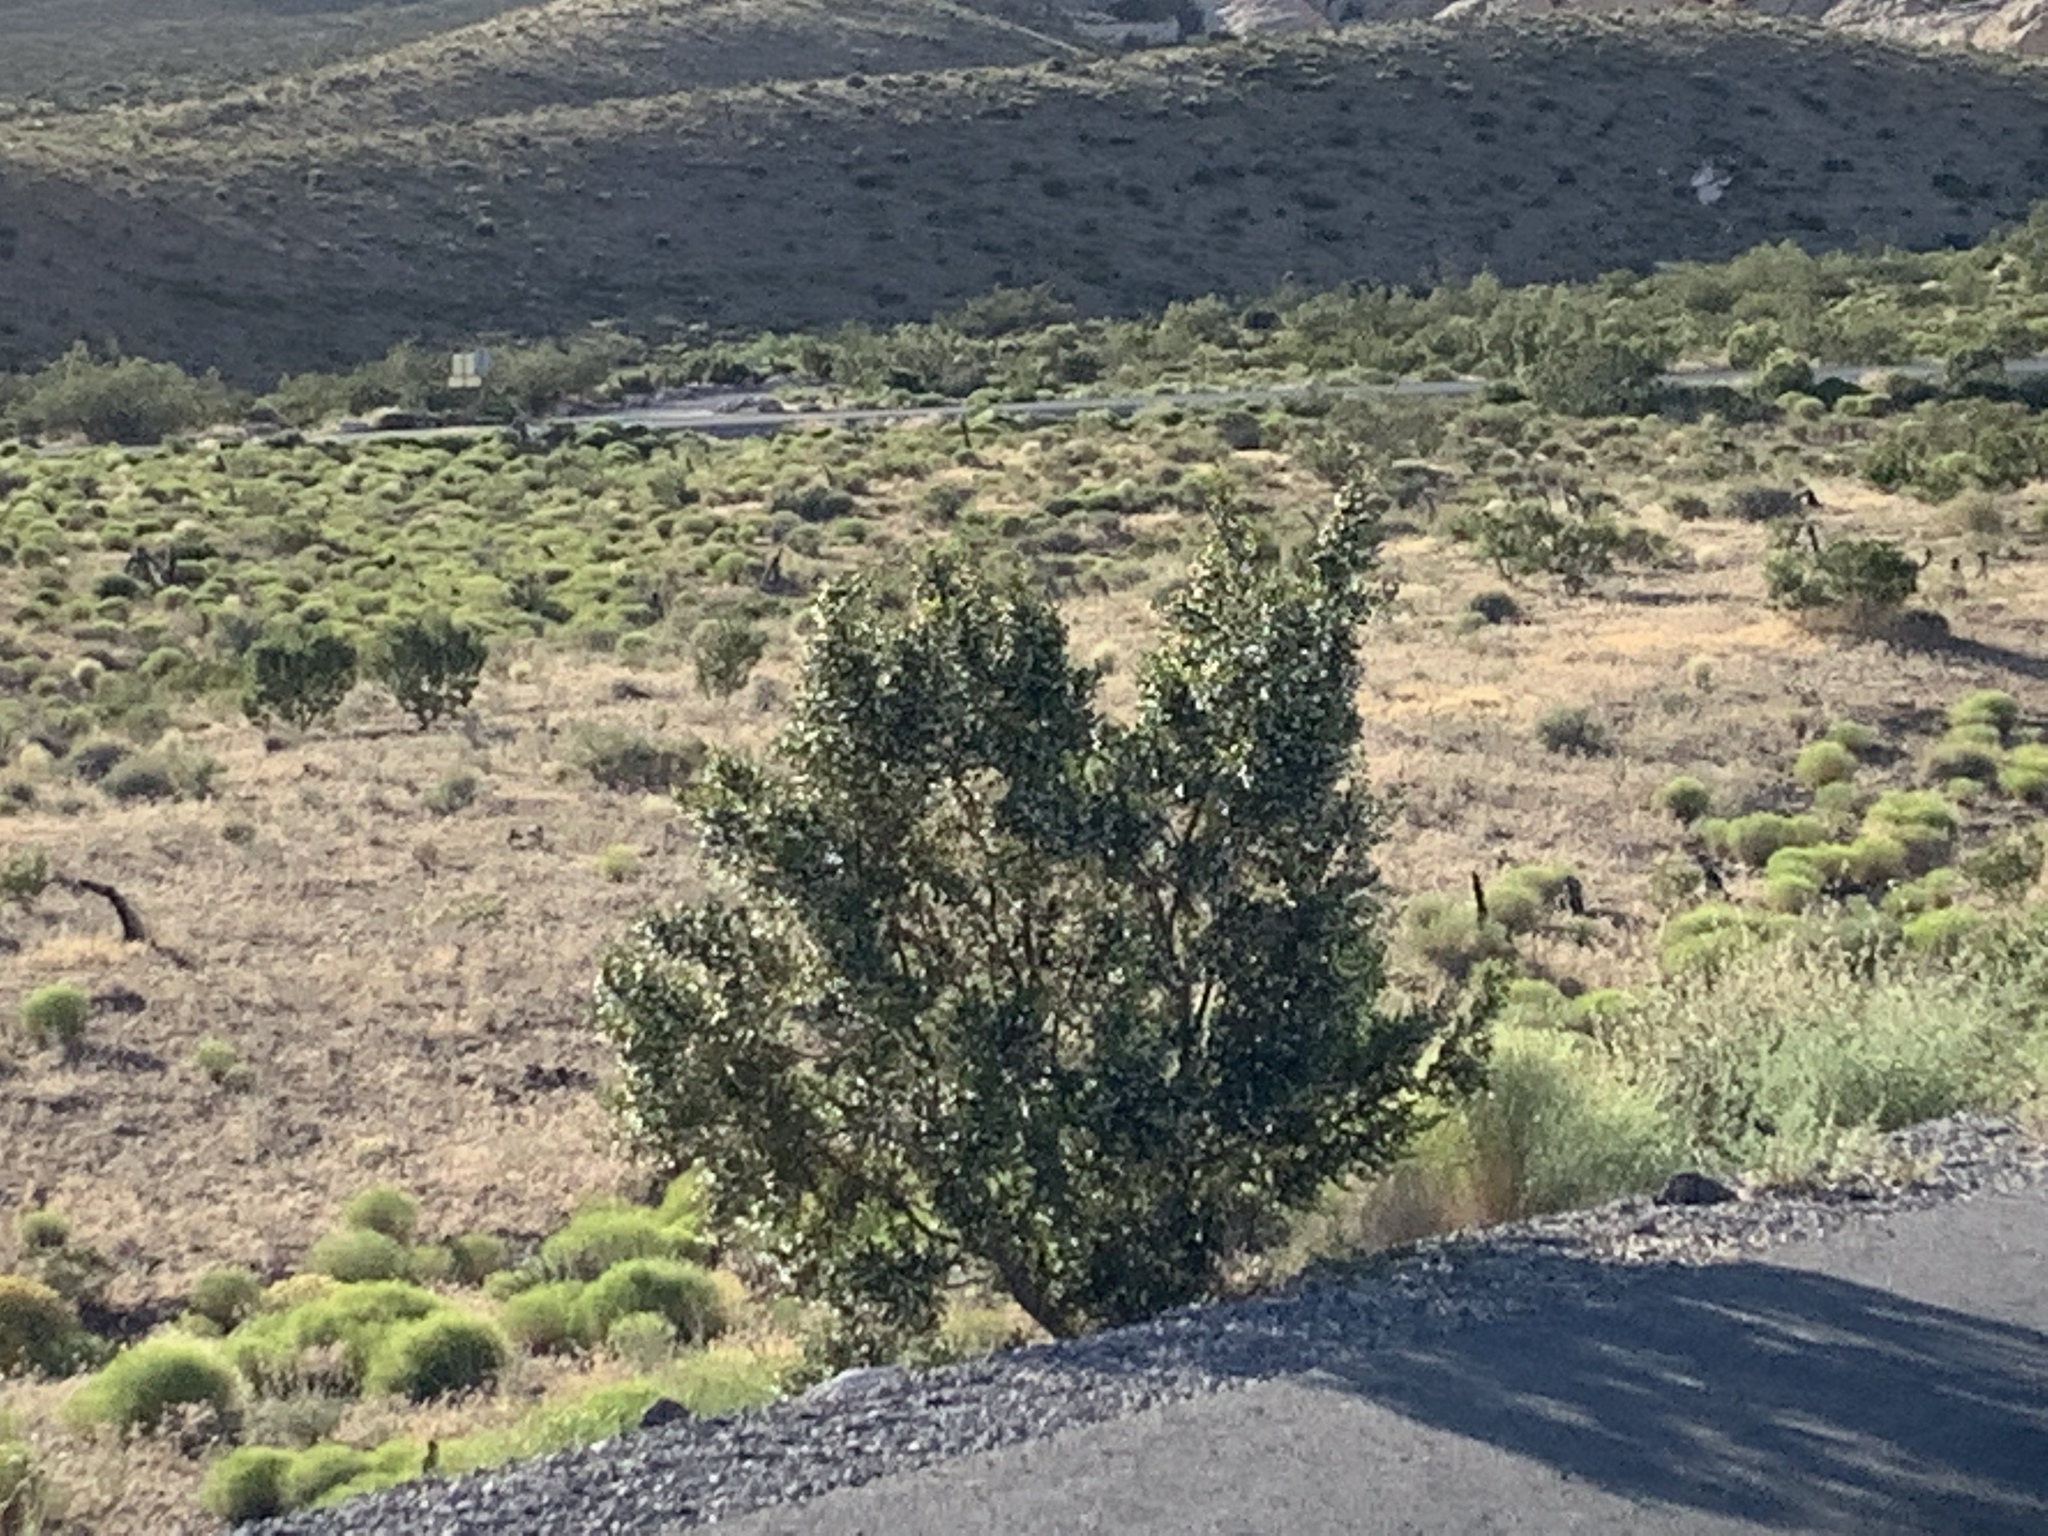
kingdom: Plantae
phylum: Tracheophyta
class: Magnoliopsida
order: Zygophyllales
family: Zygophyllaceae
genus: Larrea
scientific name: Larrea tridentata
